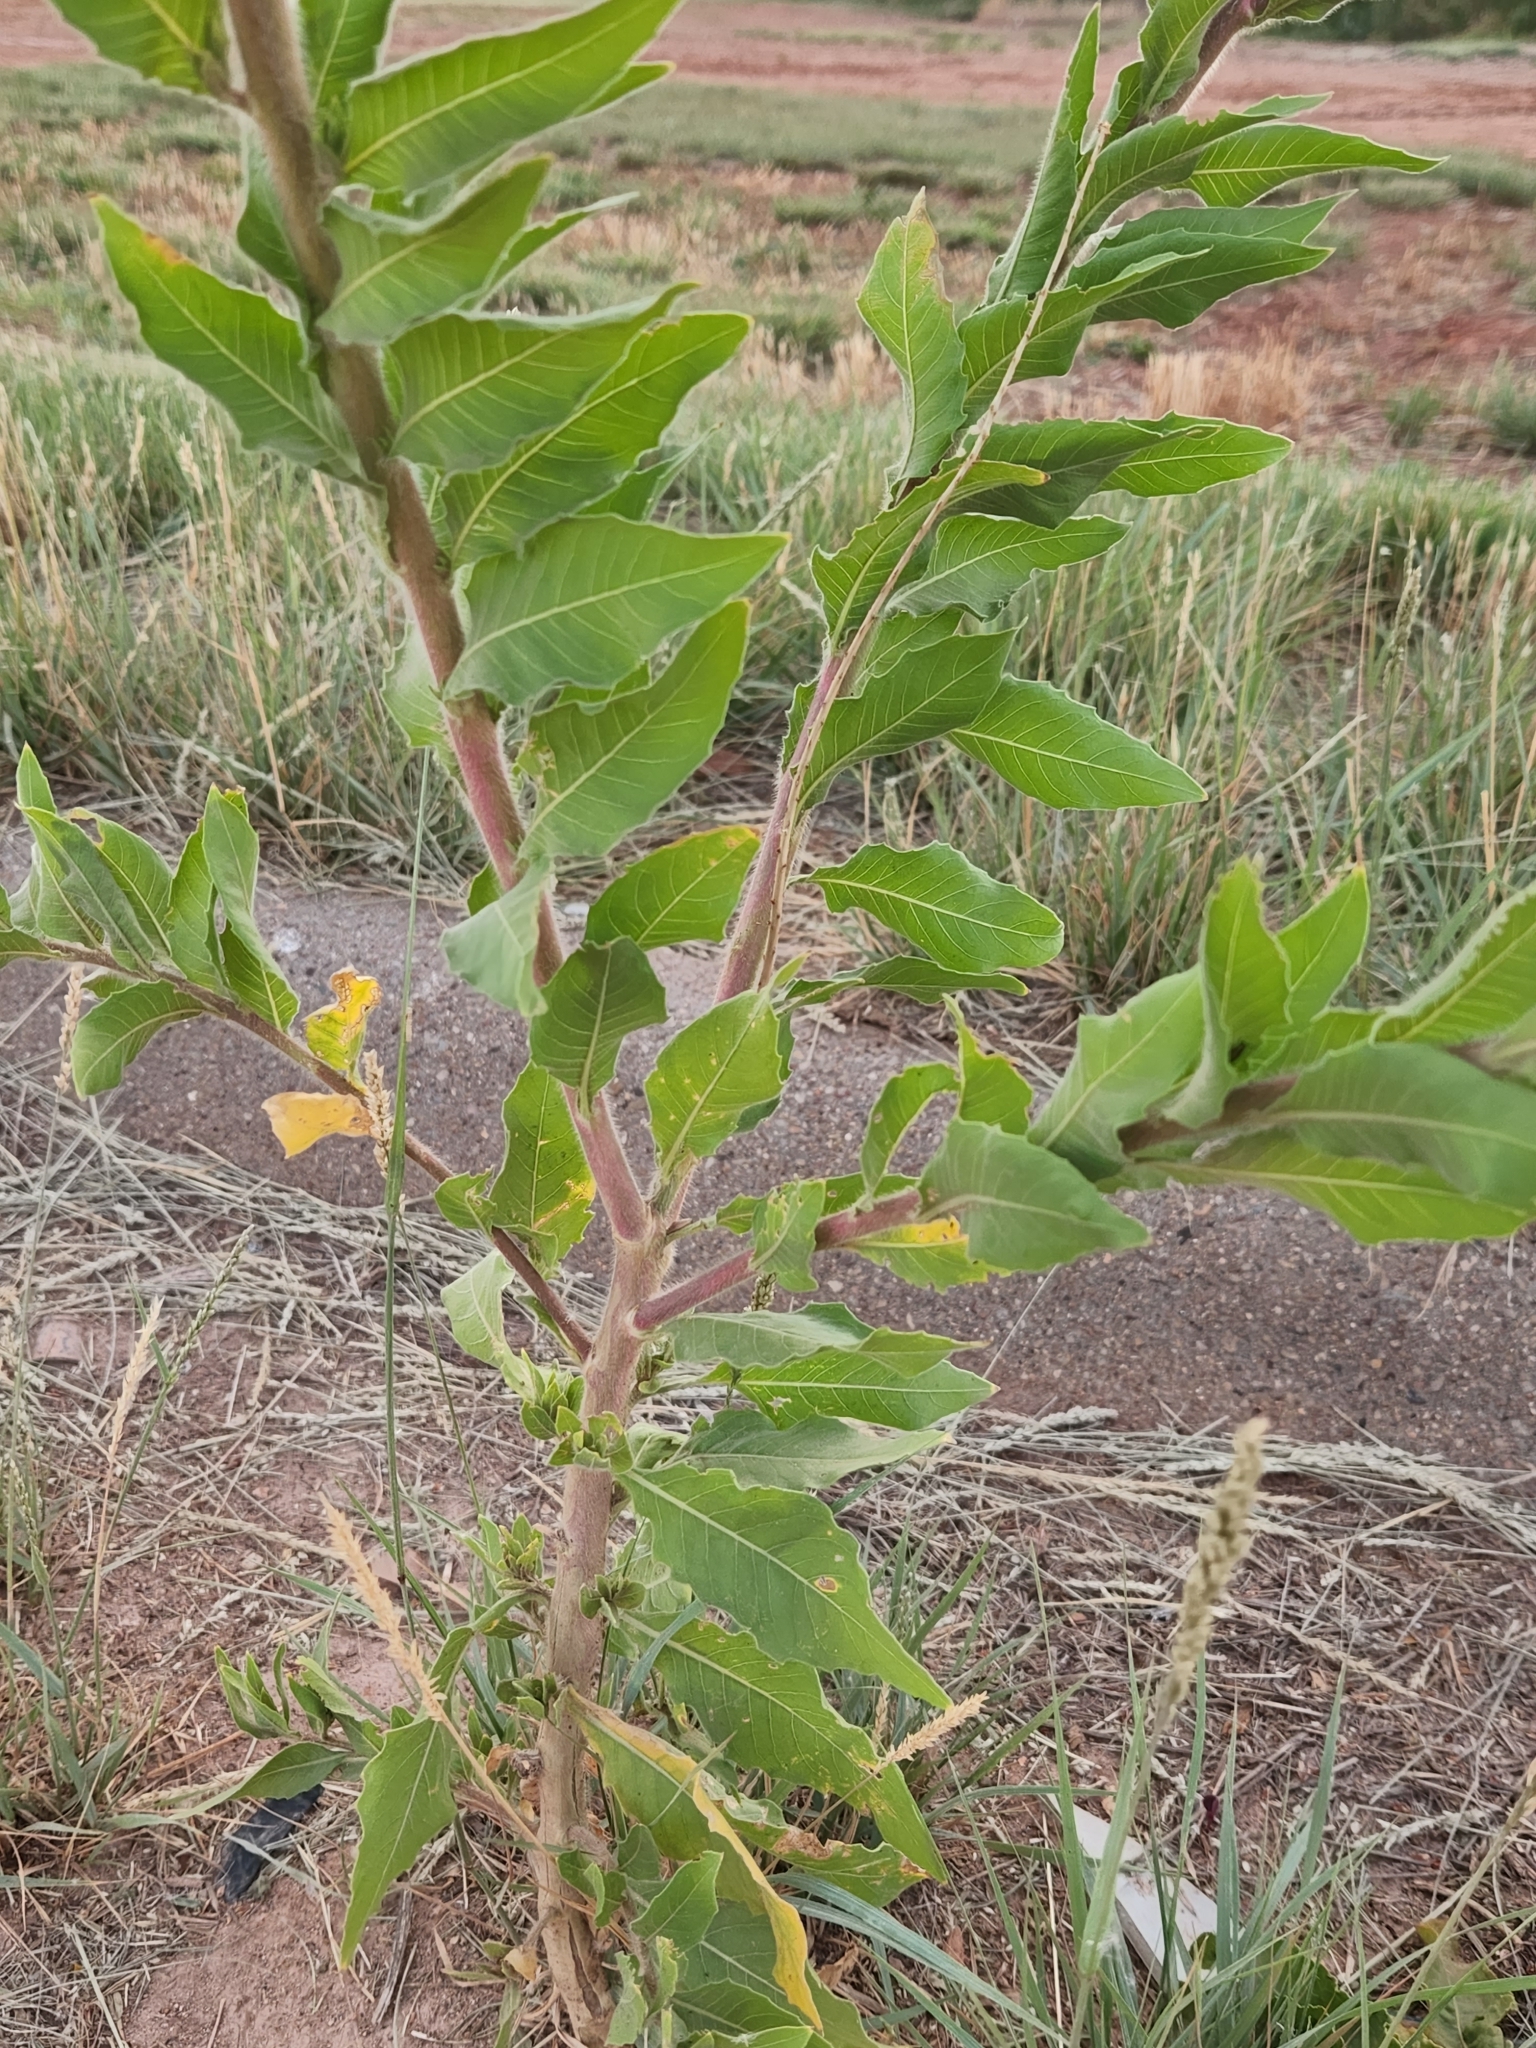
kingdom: Plantae
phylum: Tracheophyta
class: Magnoliopsida
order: Myrtales
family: Onagraceae
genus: Oenothera
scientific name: Oenothera curtiflora
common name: Velvetweed
